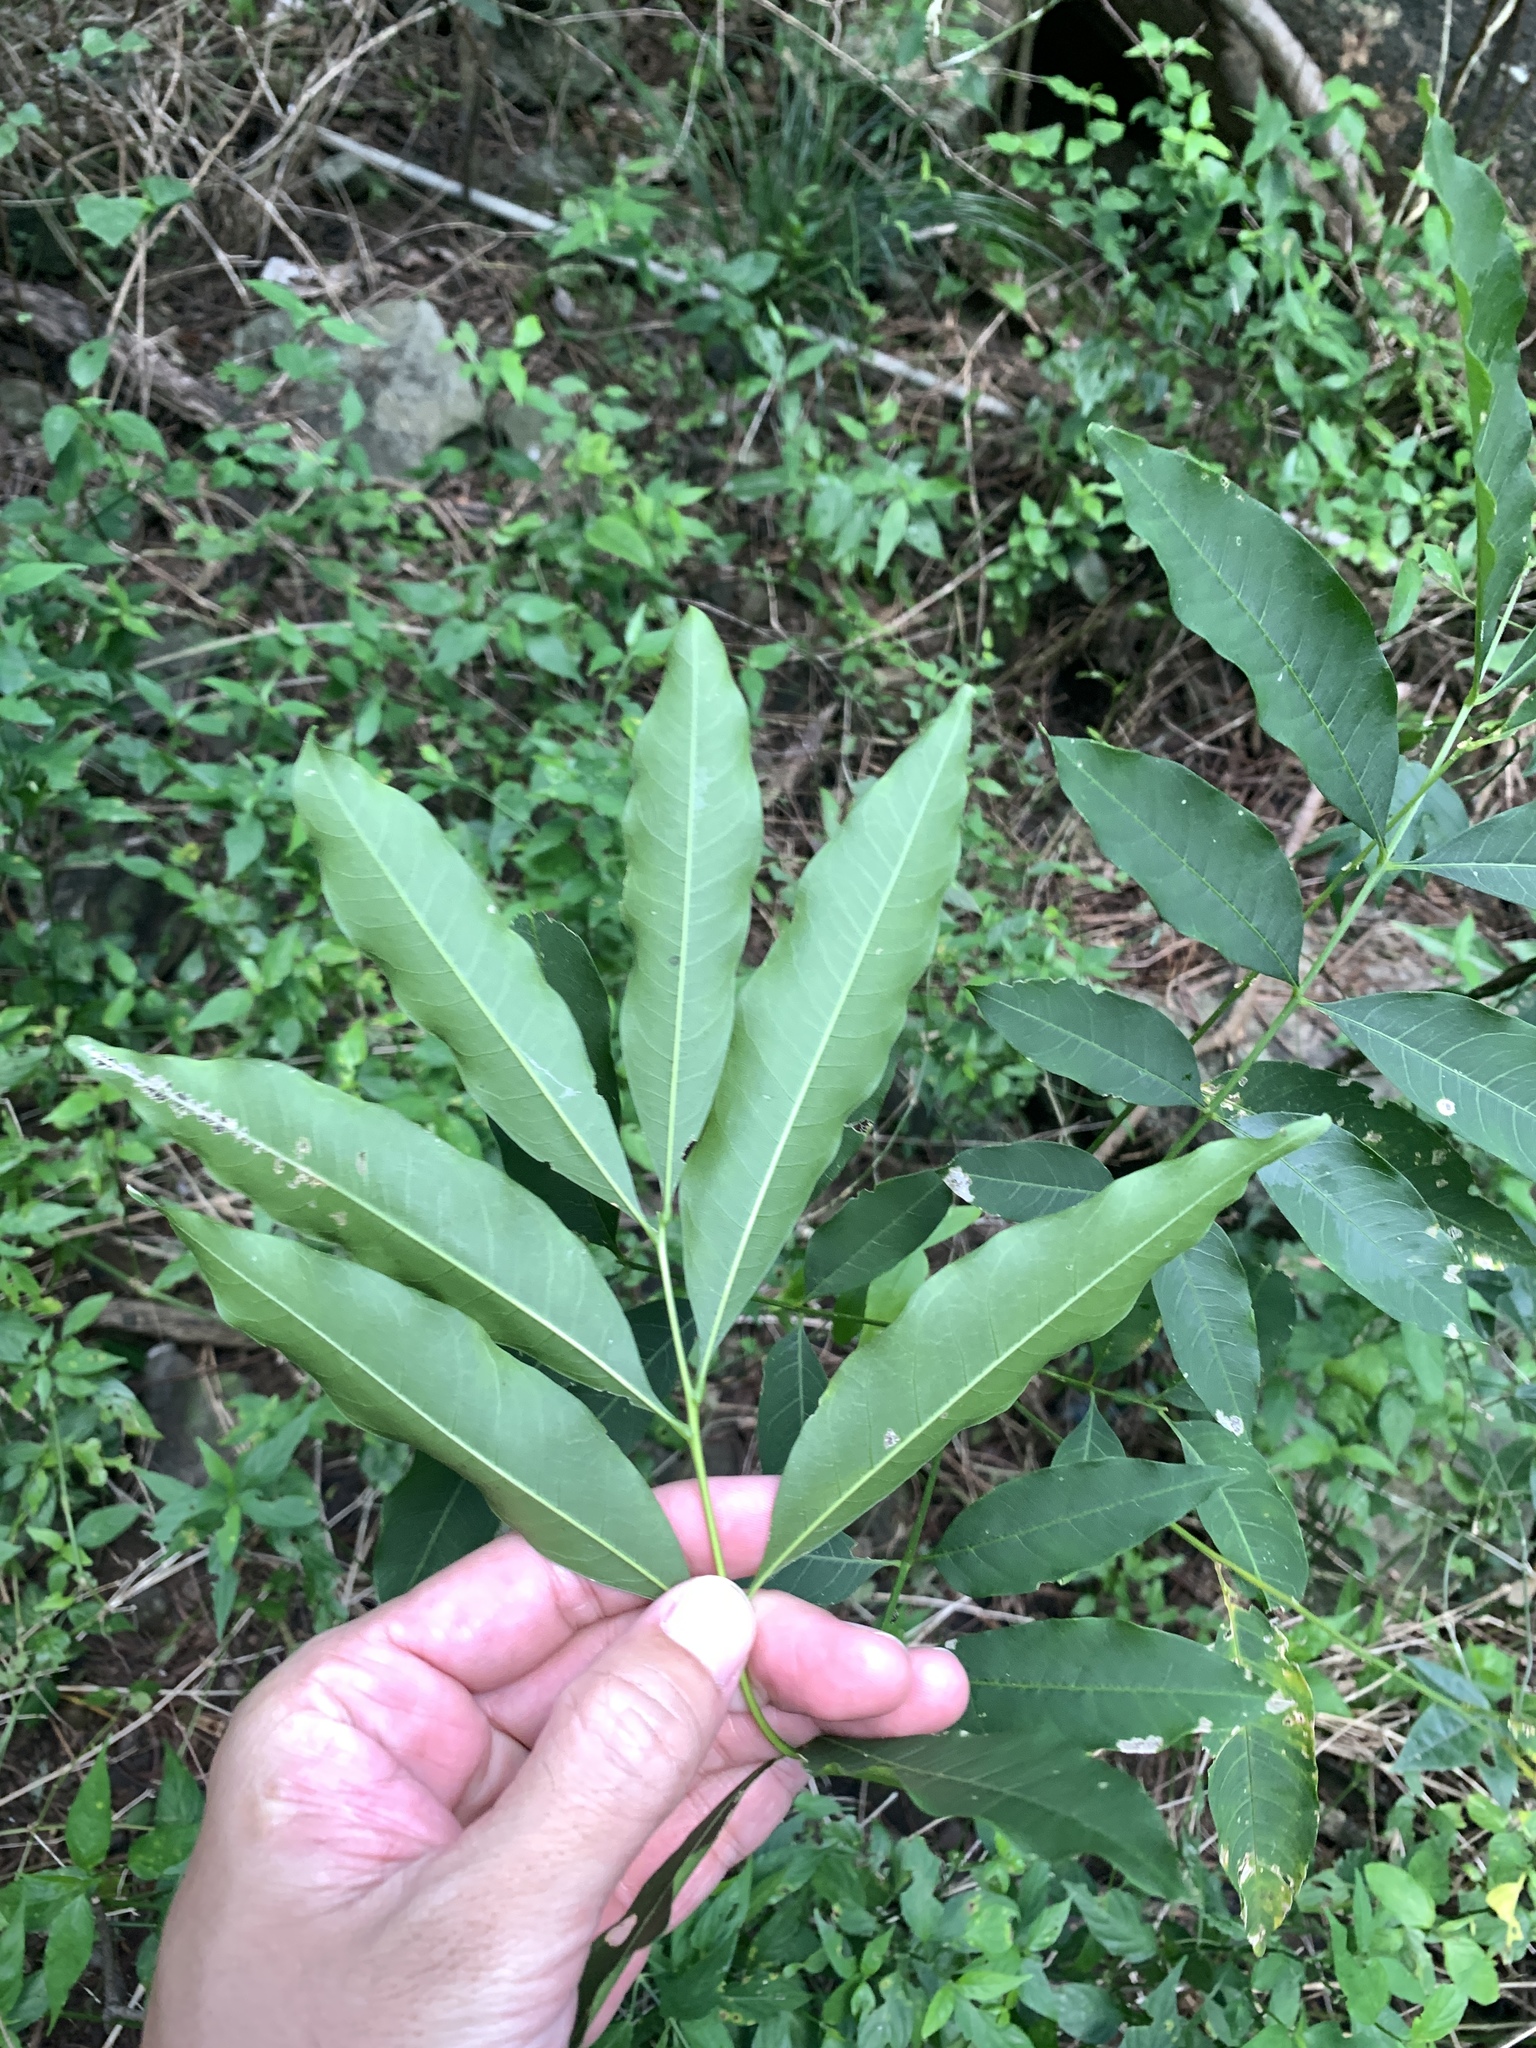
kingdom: Plantae
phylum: Tracheophyta
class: Magnoliopsida
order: Sapindales
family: Sapindaceae
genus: Sapindus
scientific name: Sapindus mukorossi
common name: Chinese soapberry
